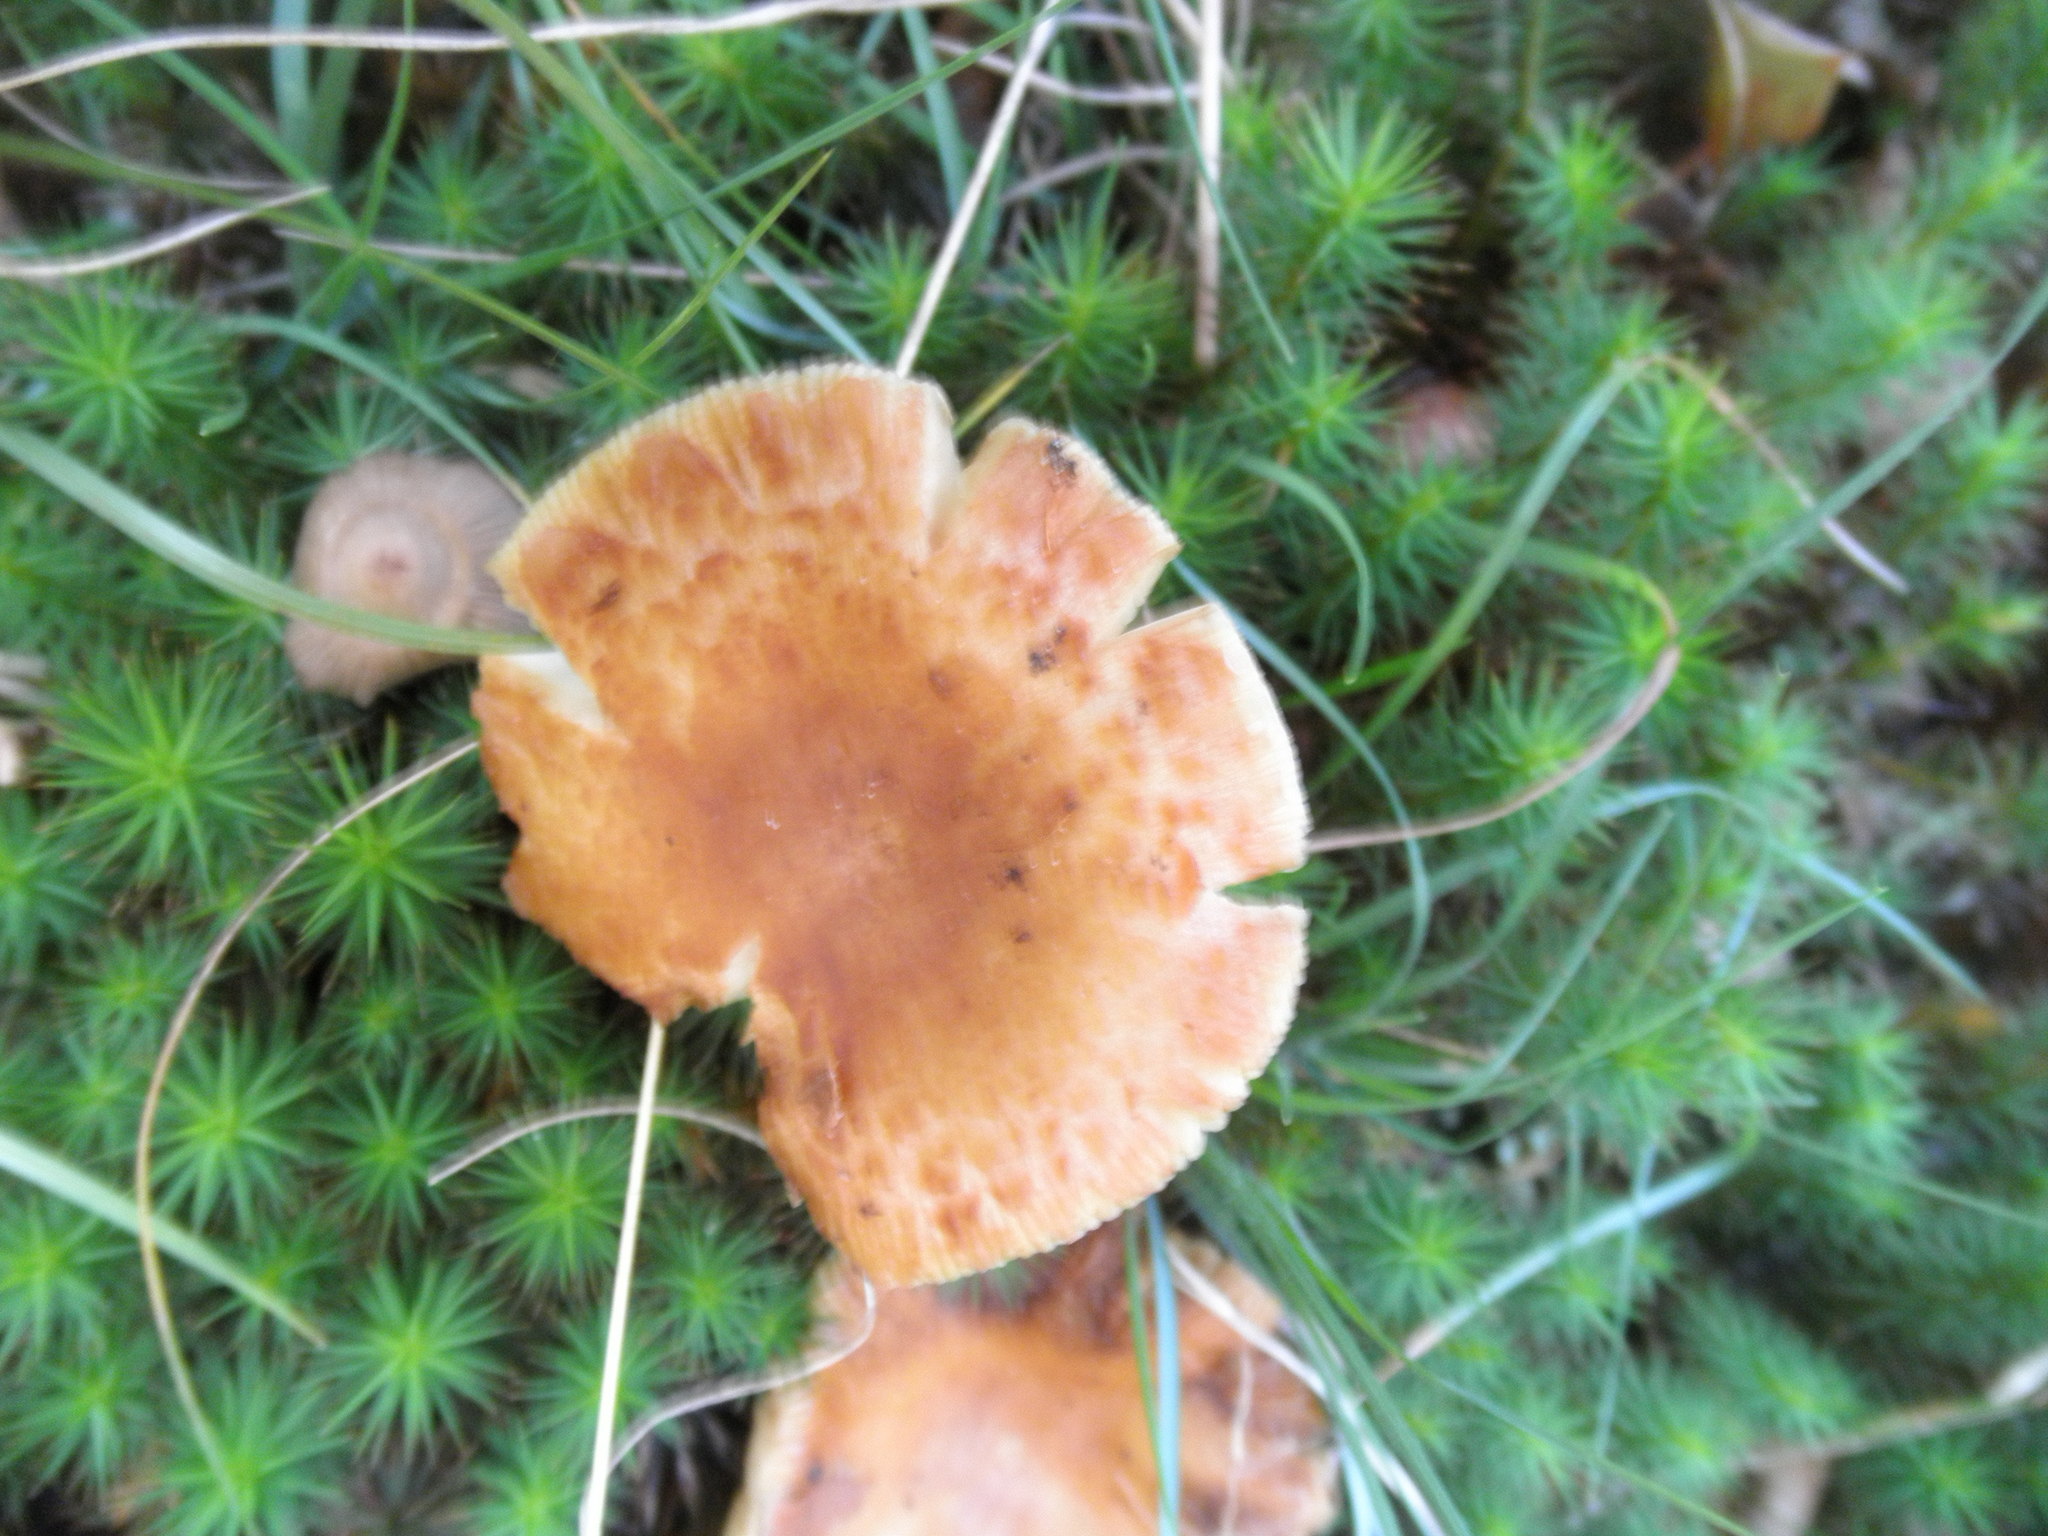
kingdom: Fungi
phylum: Basidiomycota
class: Agaricomycetes
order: Russulales
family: Russulaceae
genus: Russula
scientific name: Russula
